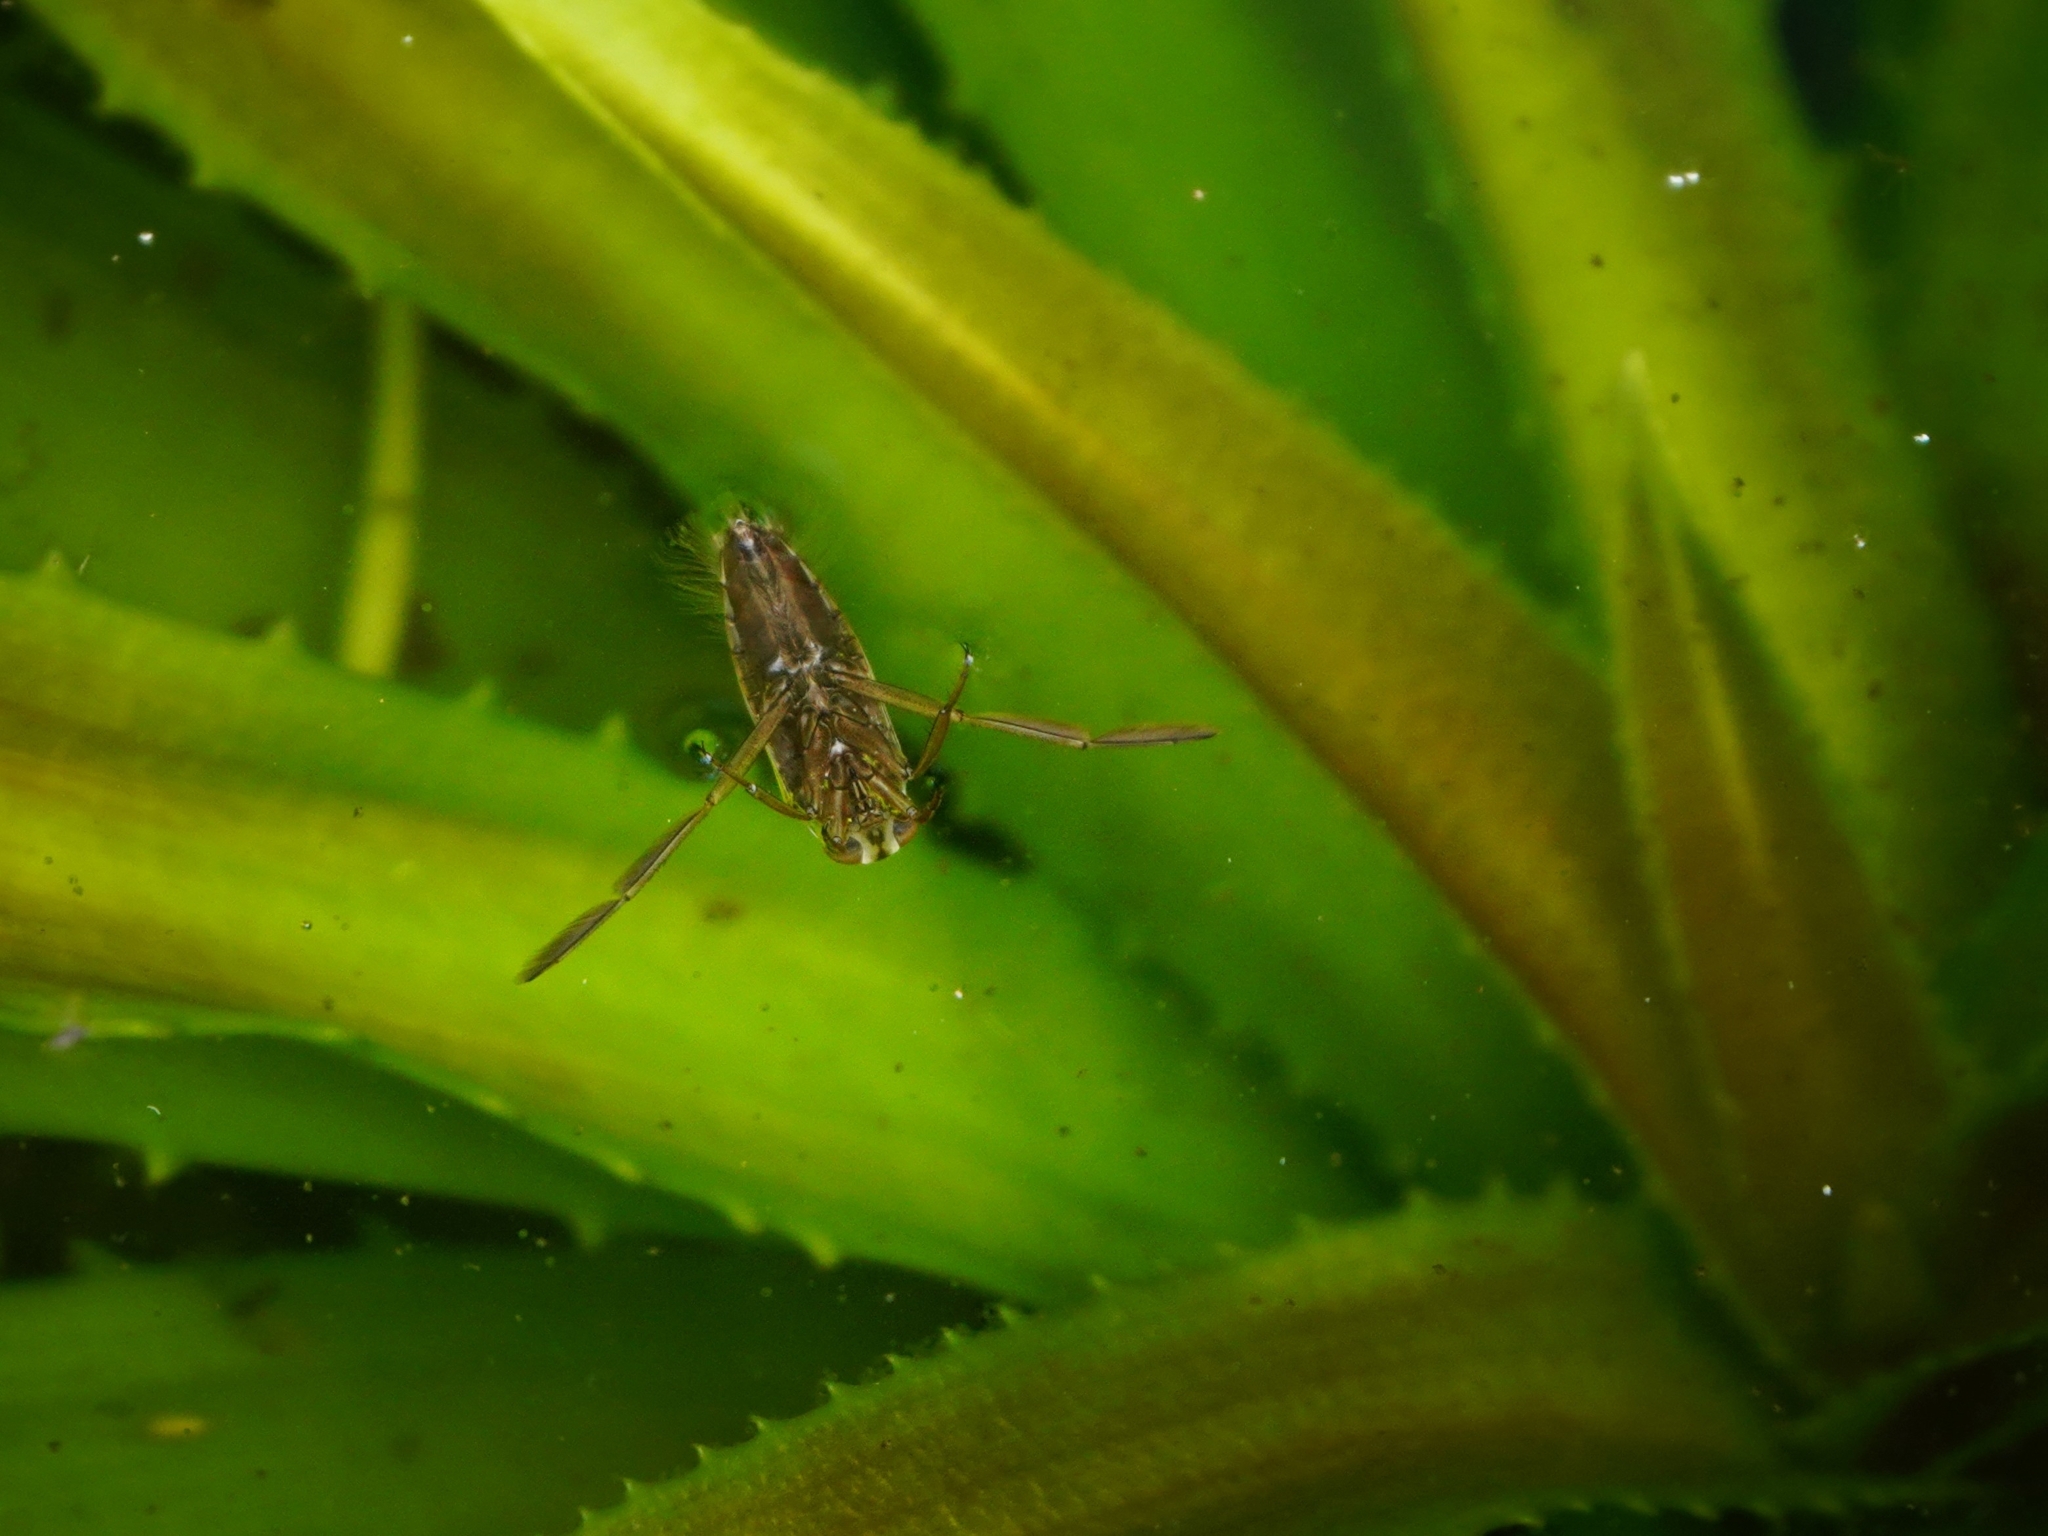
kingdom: Animalia
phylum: Arthropoda
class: Insecta
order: Hemiptera
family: Notonectidae
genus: Notonecta
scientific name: Notonecta
